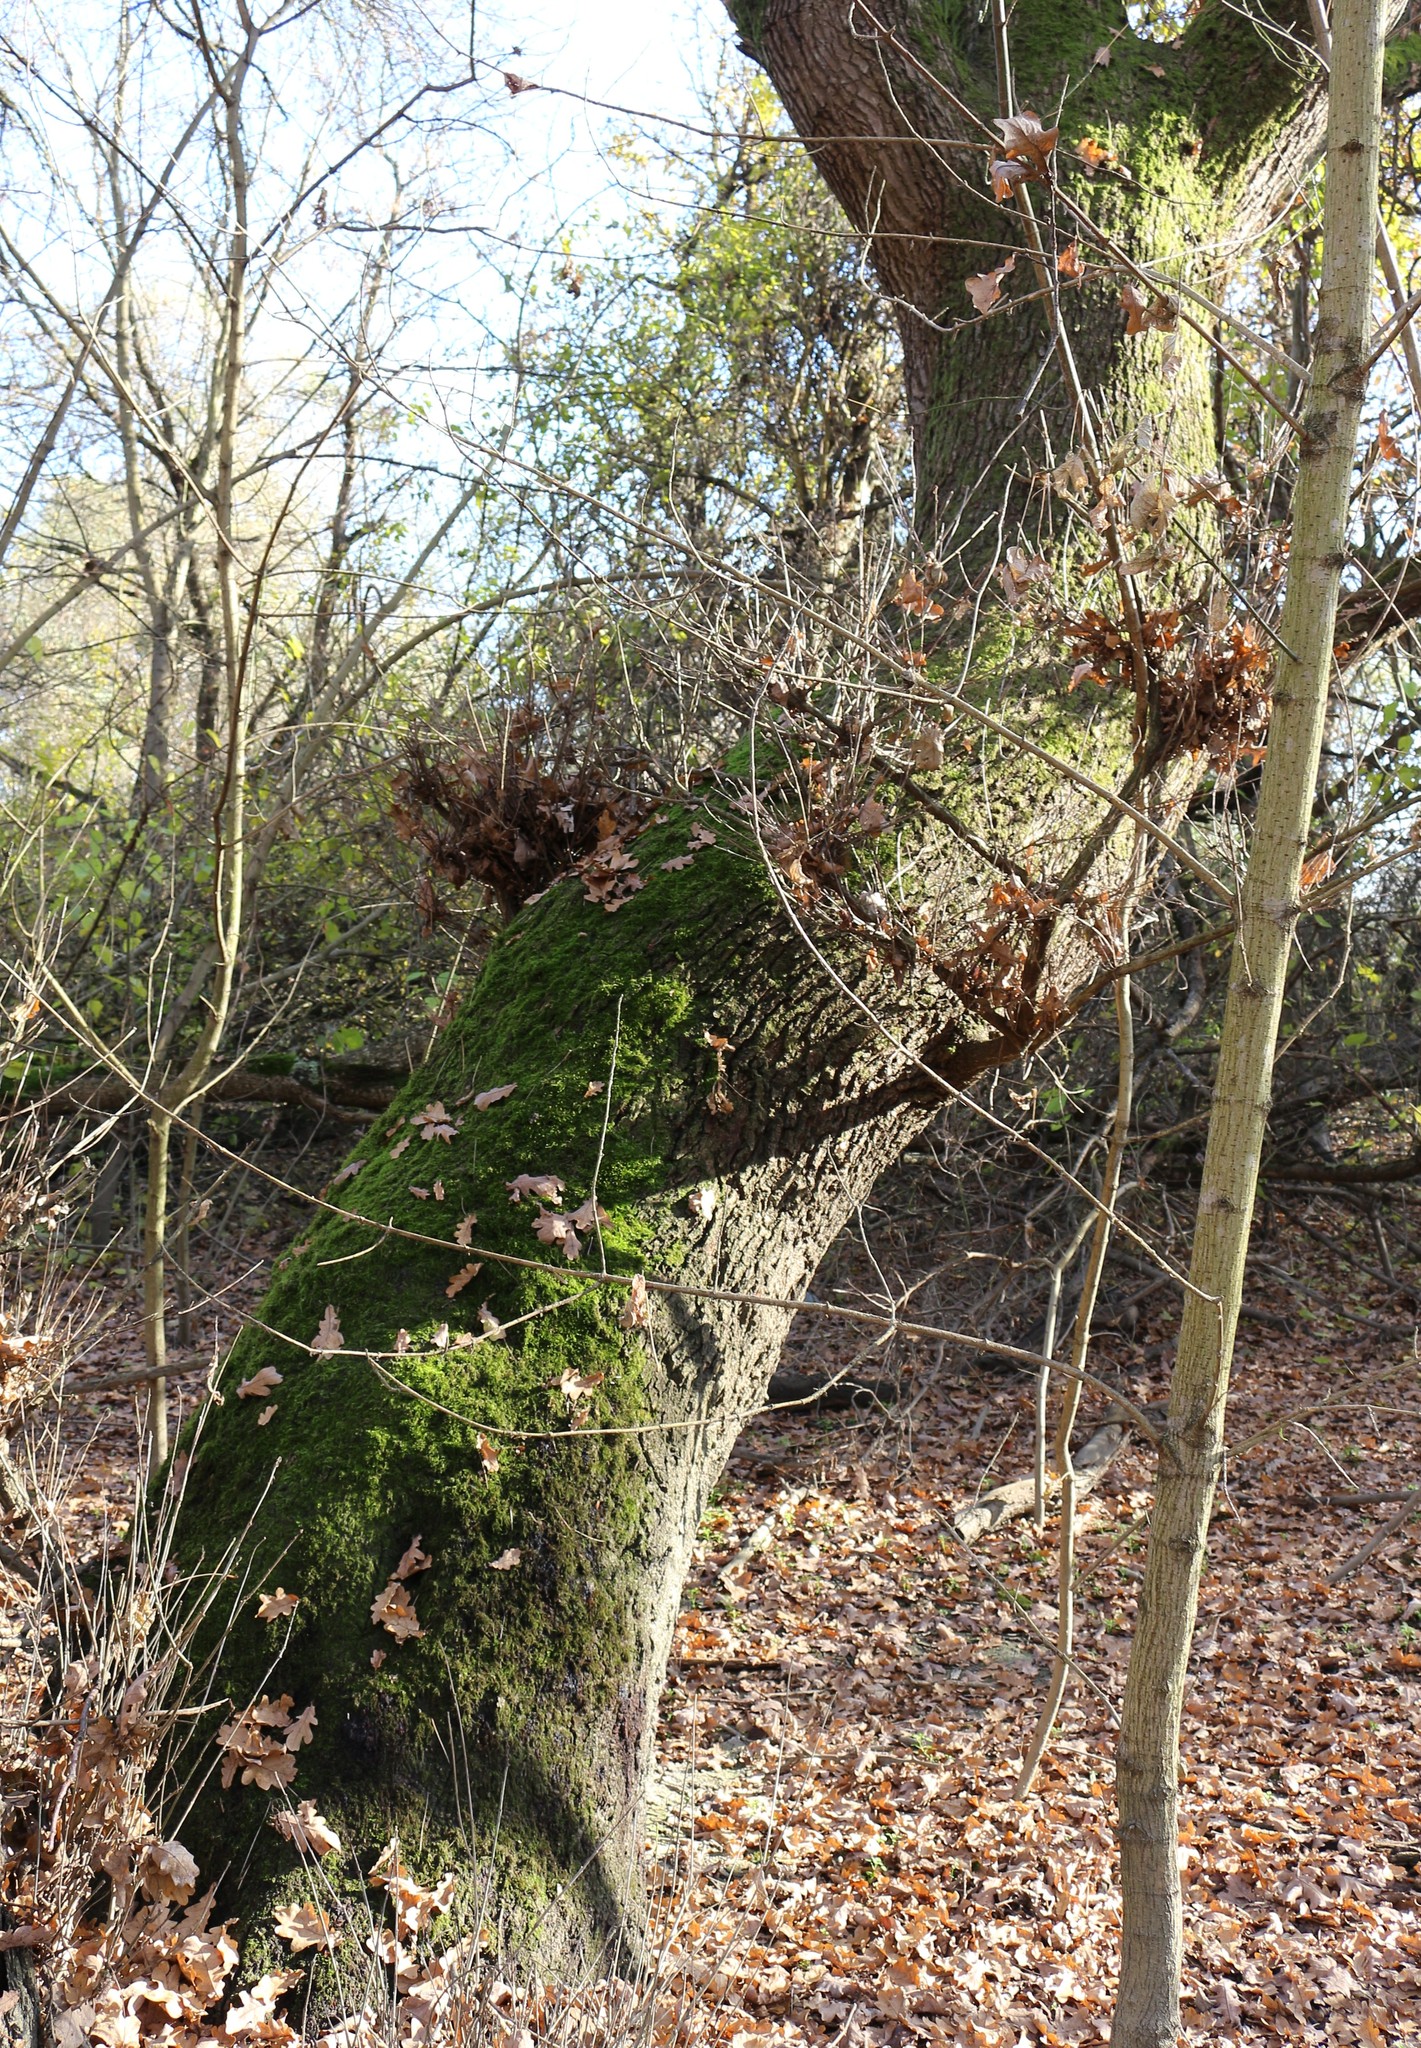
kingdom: Plantae
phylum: Tracheophyta
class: Magnoliopsida
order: Fagales
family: Fagaceae
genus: Quercus
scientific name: Quercus robur
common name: Pedunculate oak
